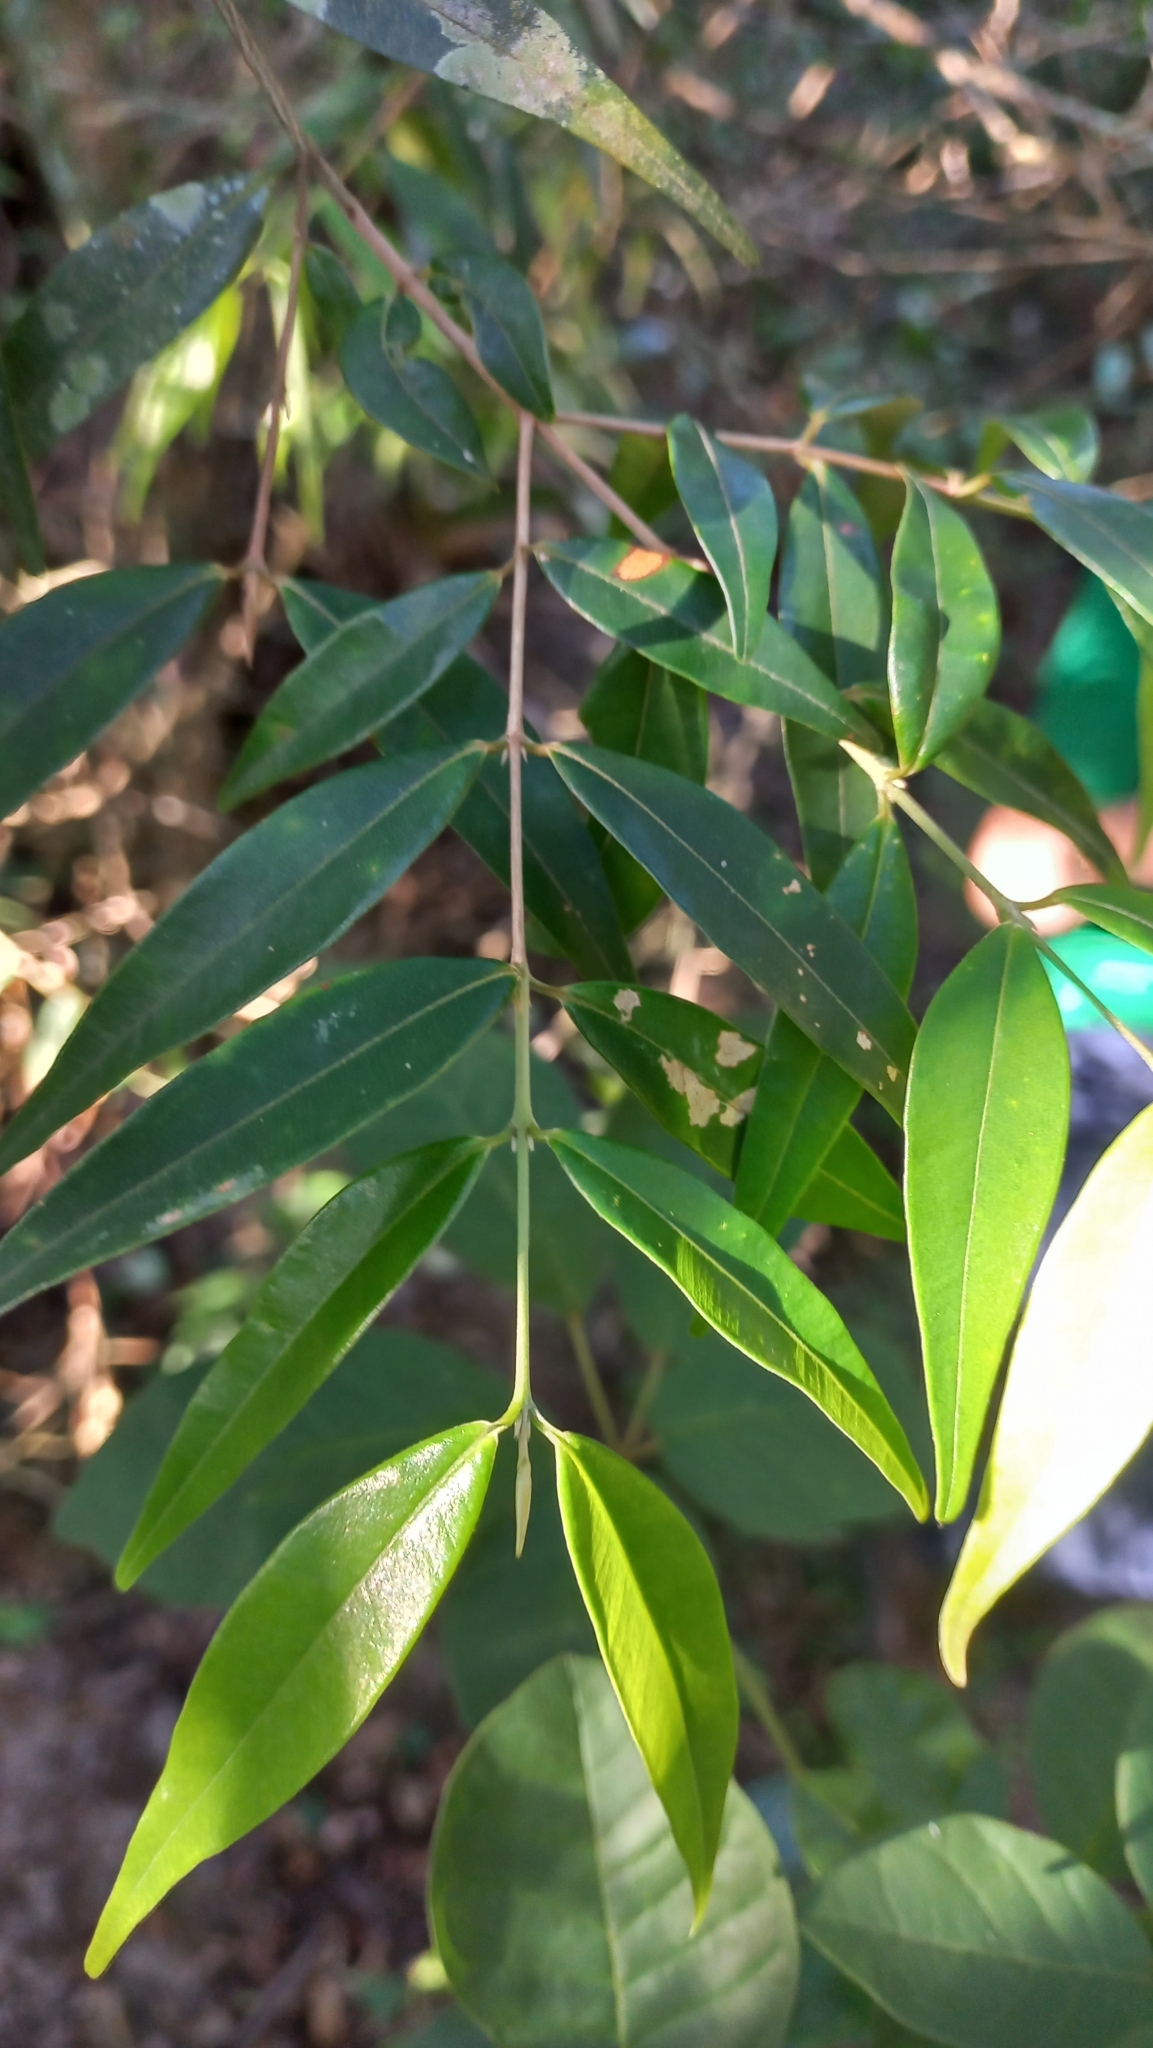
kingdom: Plantae
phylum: Tracheophyta
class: Magnoliopsida
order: Myrtales
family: Myrtaceae
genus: Myrcia
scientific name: Myrcia splendens
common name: Surinam cherry
